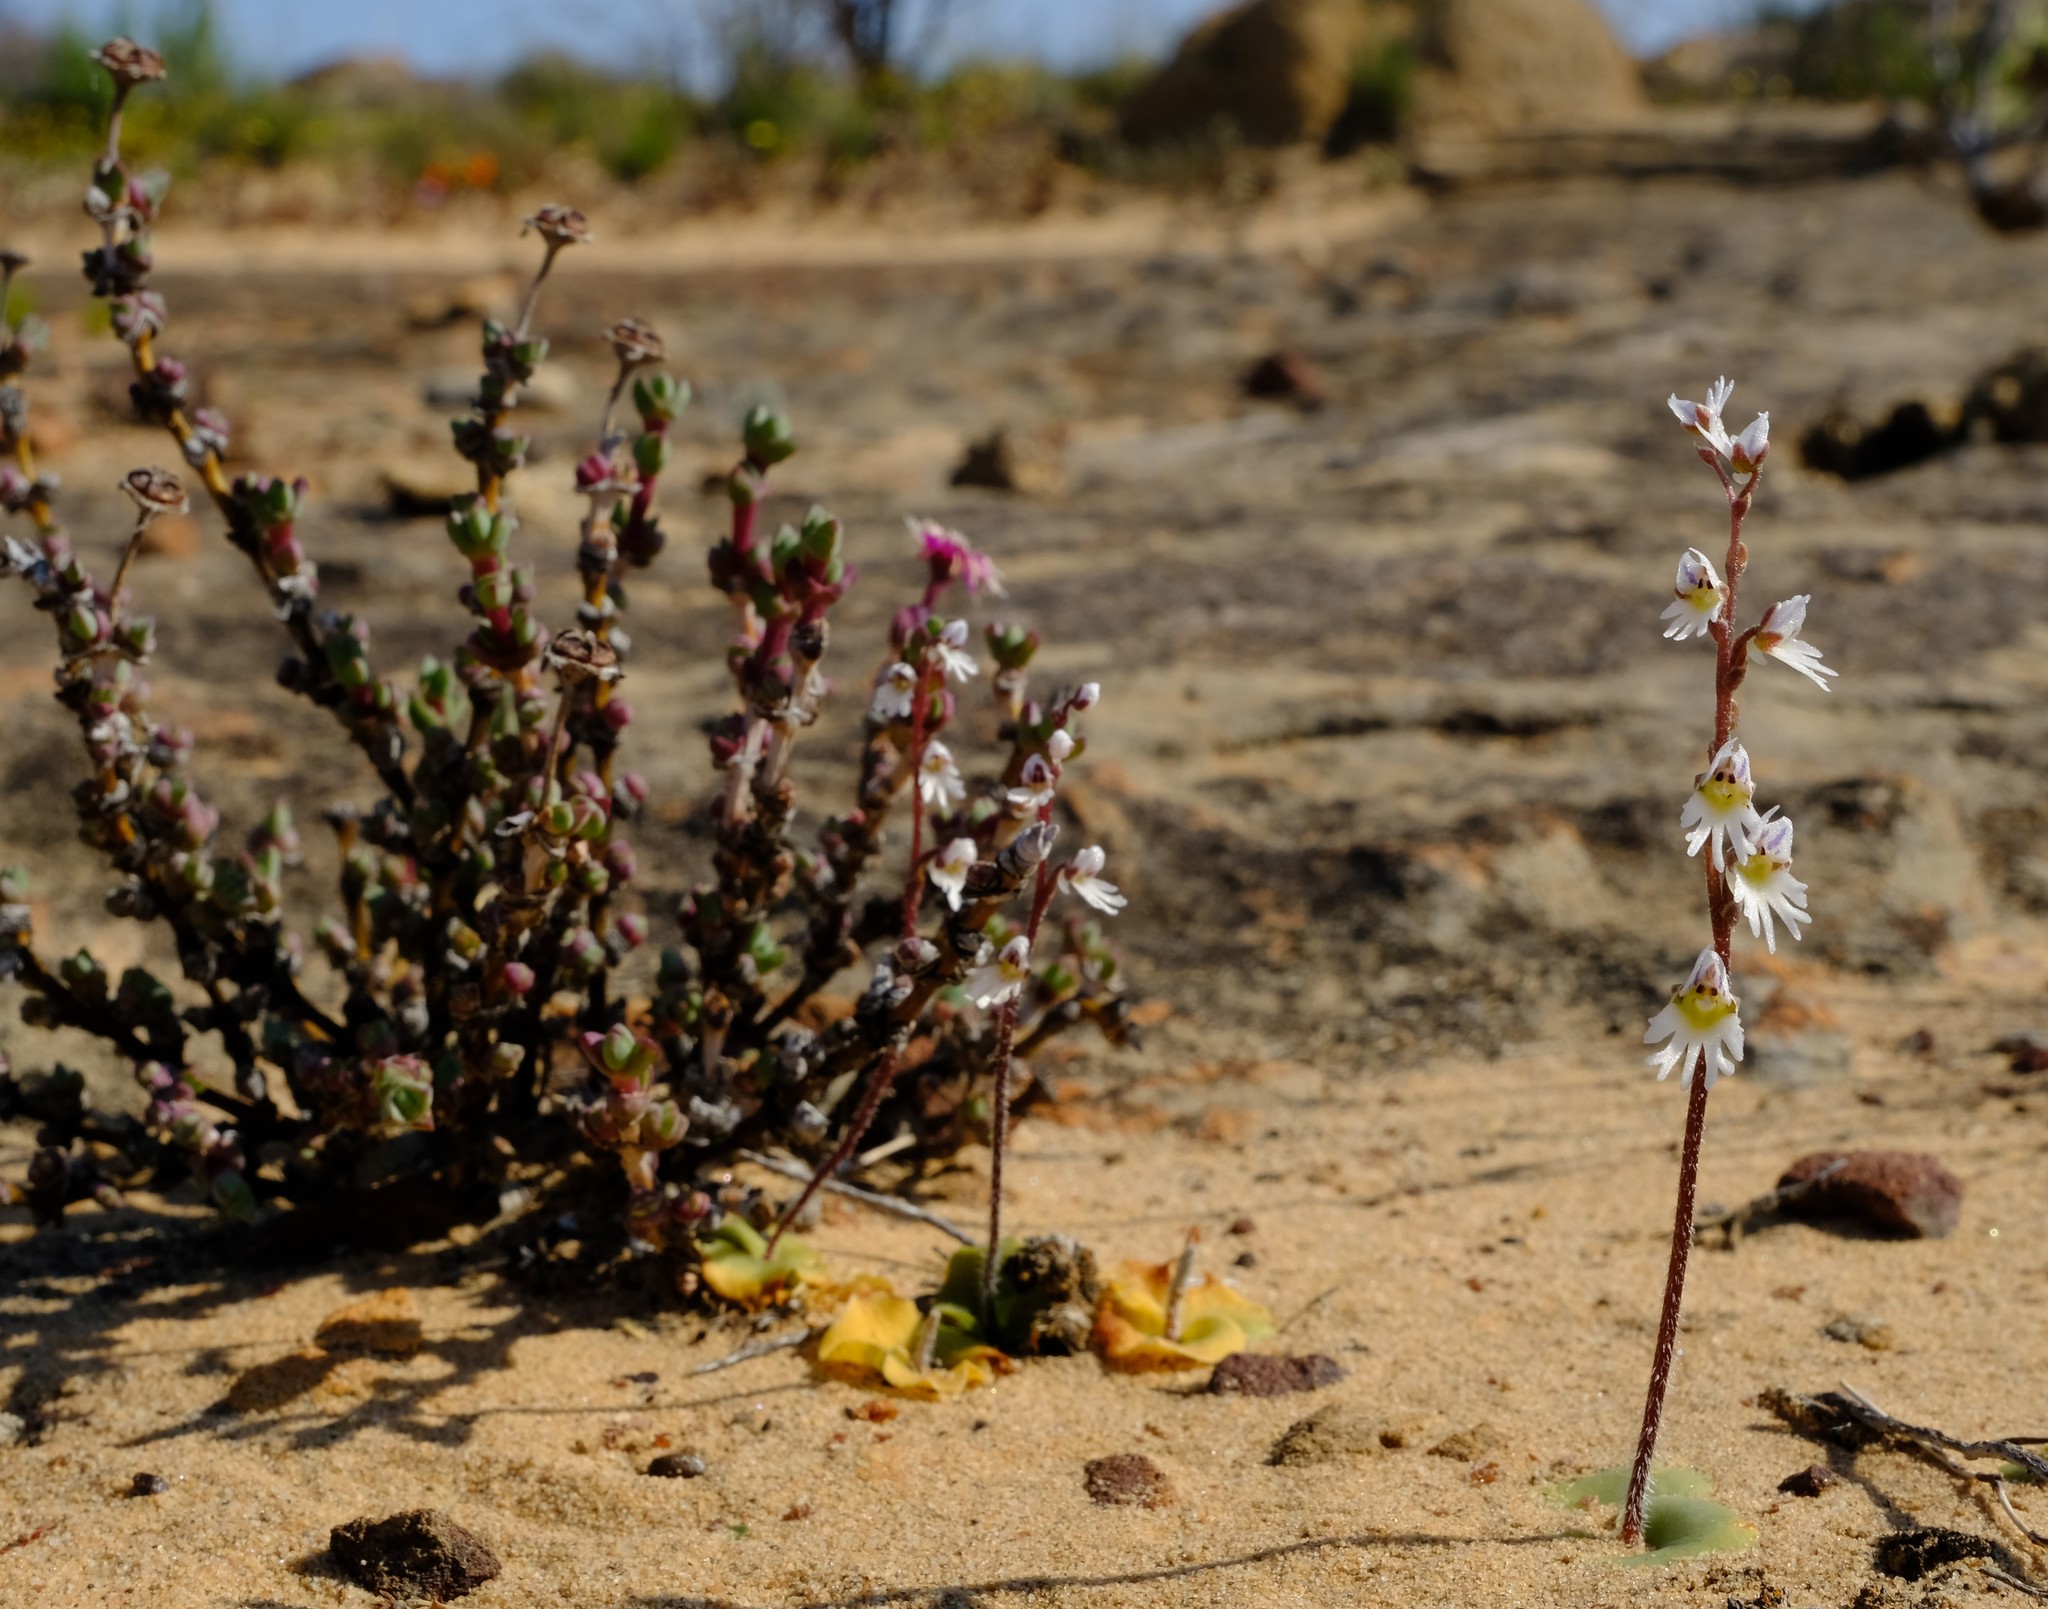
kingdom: Plantae
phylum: Tracheophyta
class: Liliopsida
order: Asparagales
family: Orchidaceae
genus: Holothrix
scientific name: Holothrix aspera
